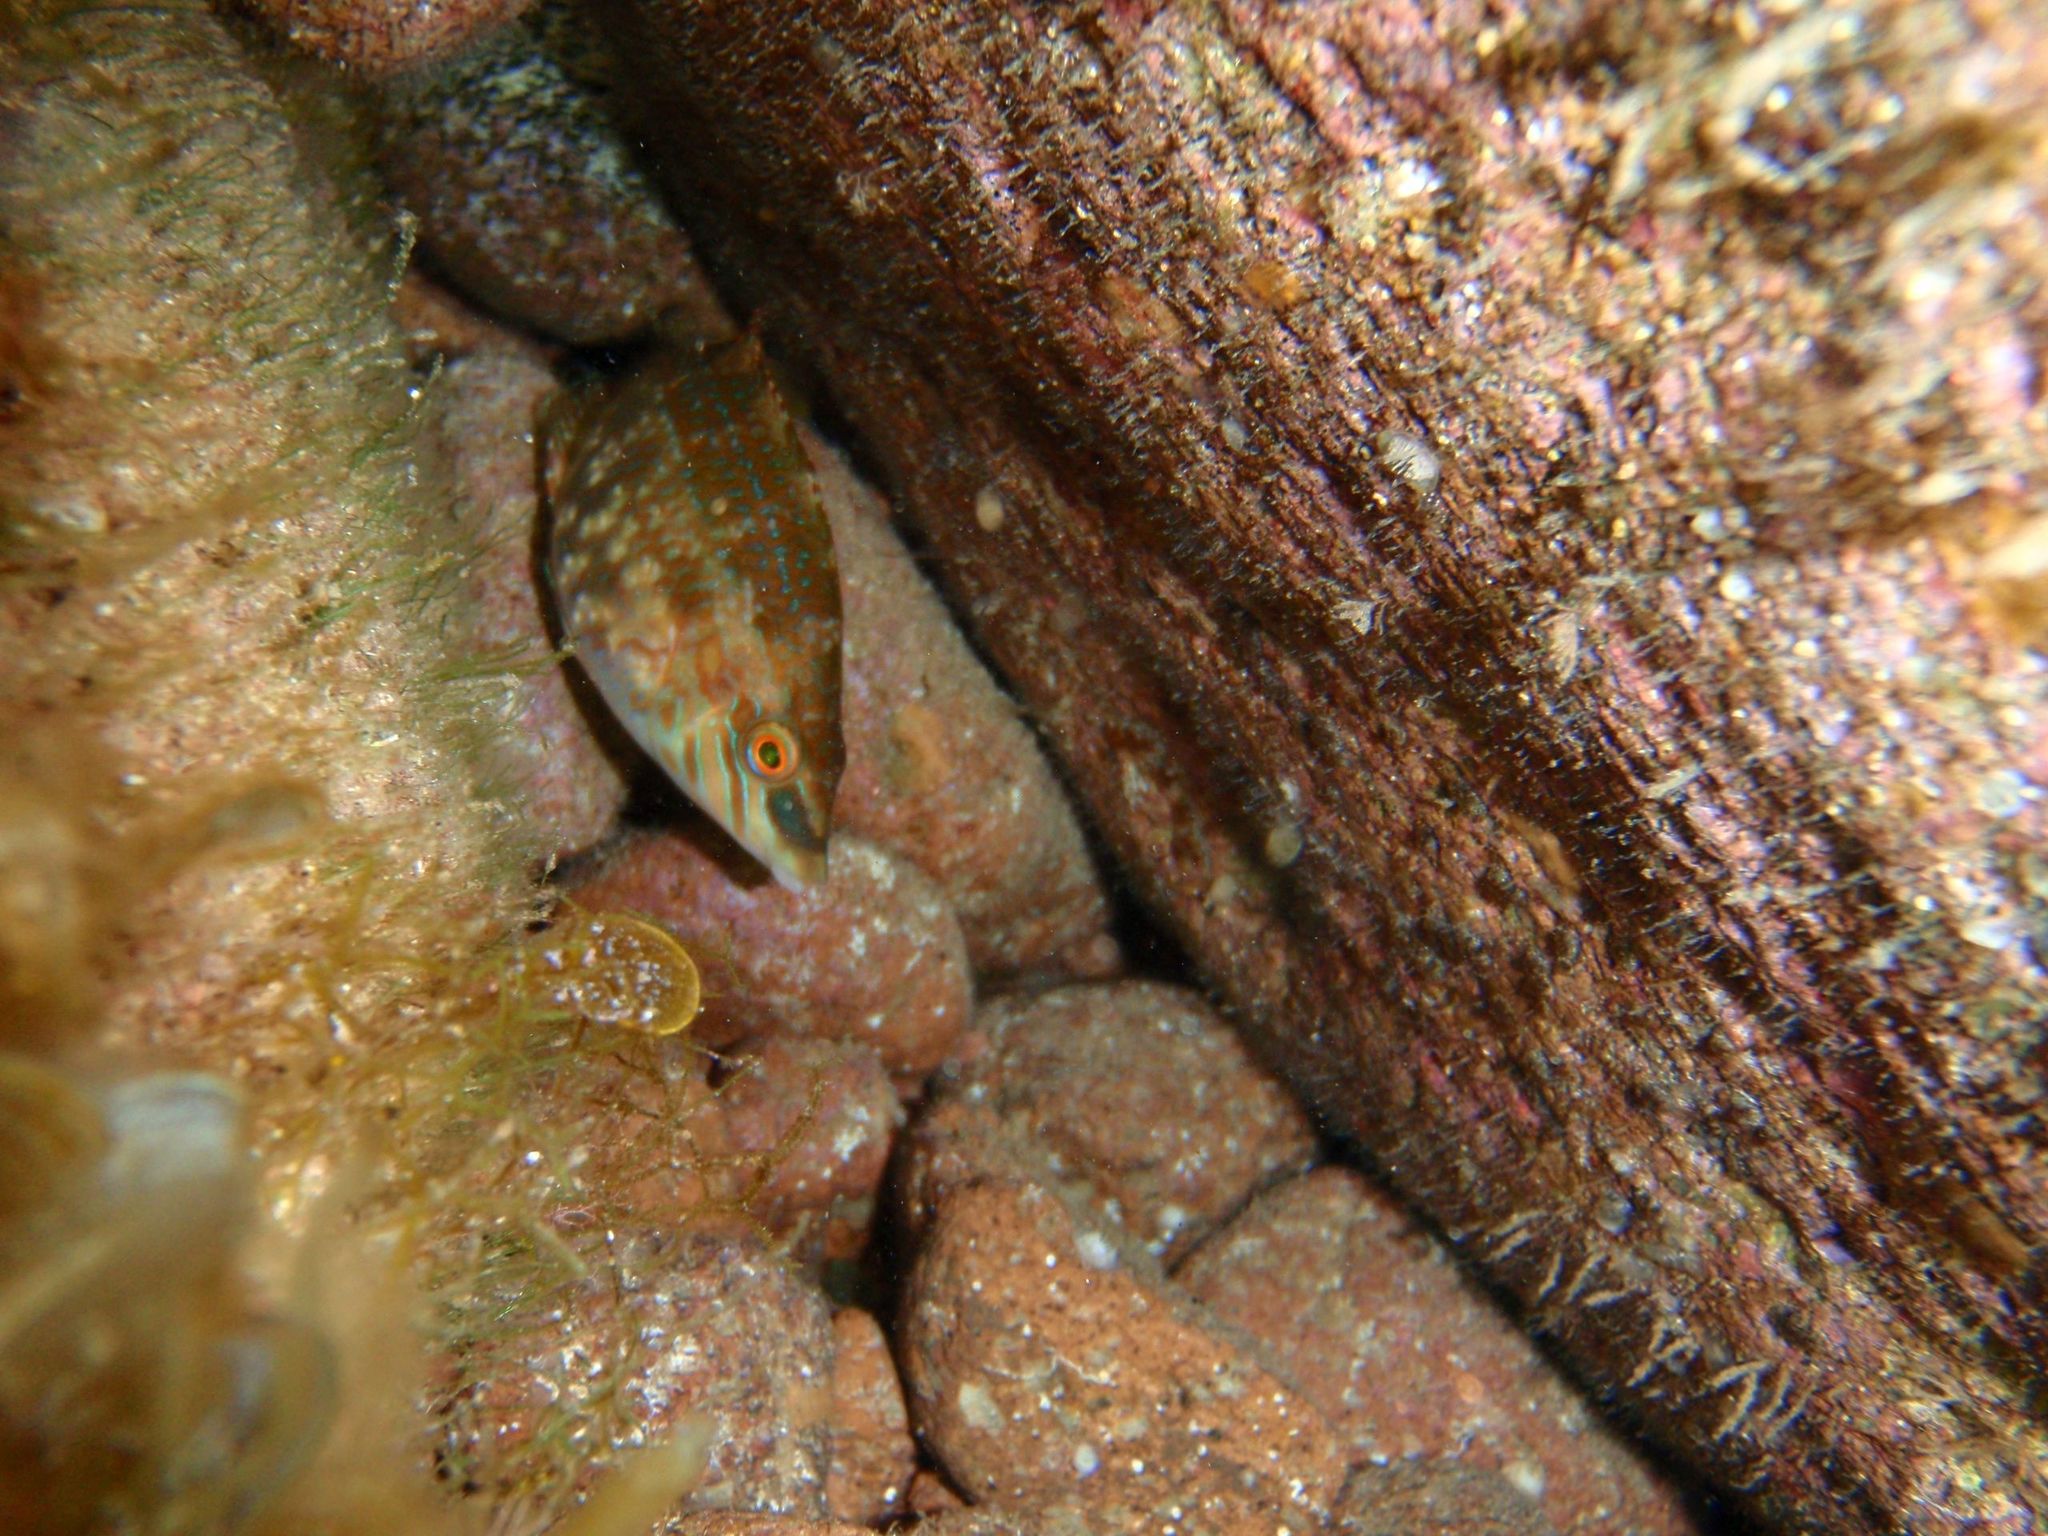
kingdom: Animalia
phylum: Chordata
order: Perciformes
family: Labridae
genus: Symphodus
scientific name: Symphodus roissali
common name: Five-spotted wrasse
